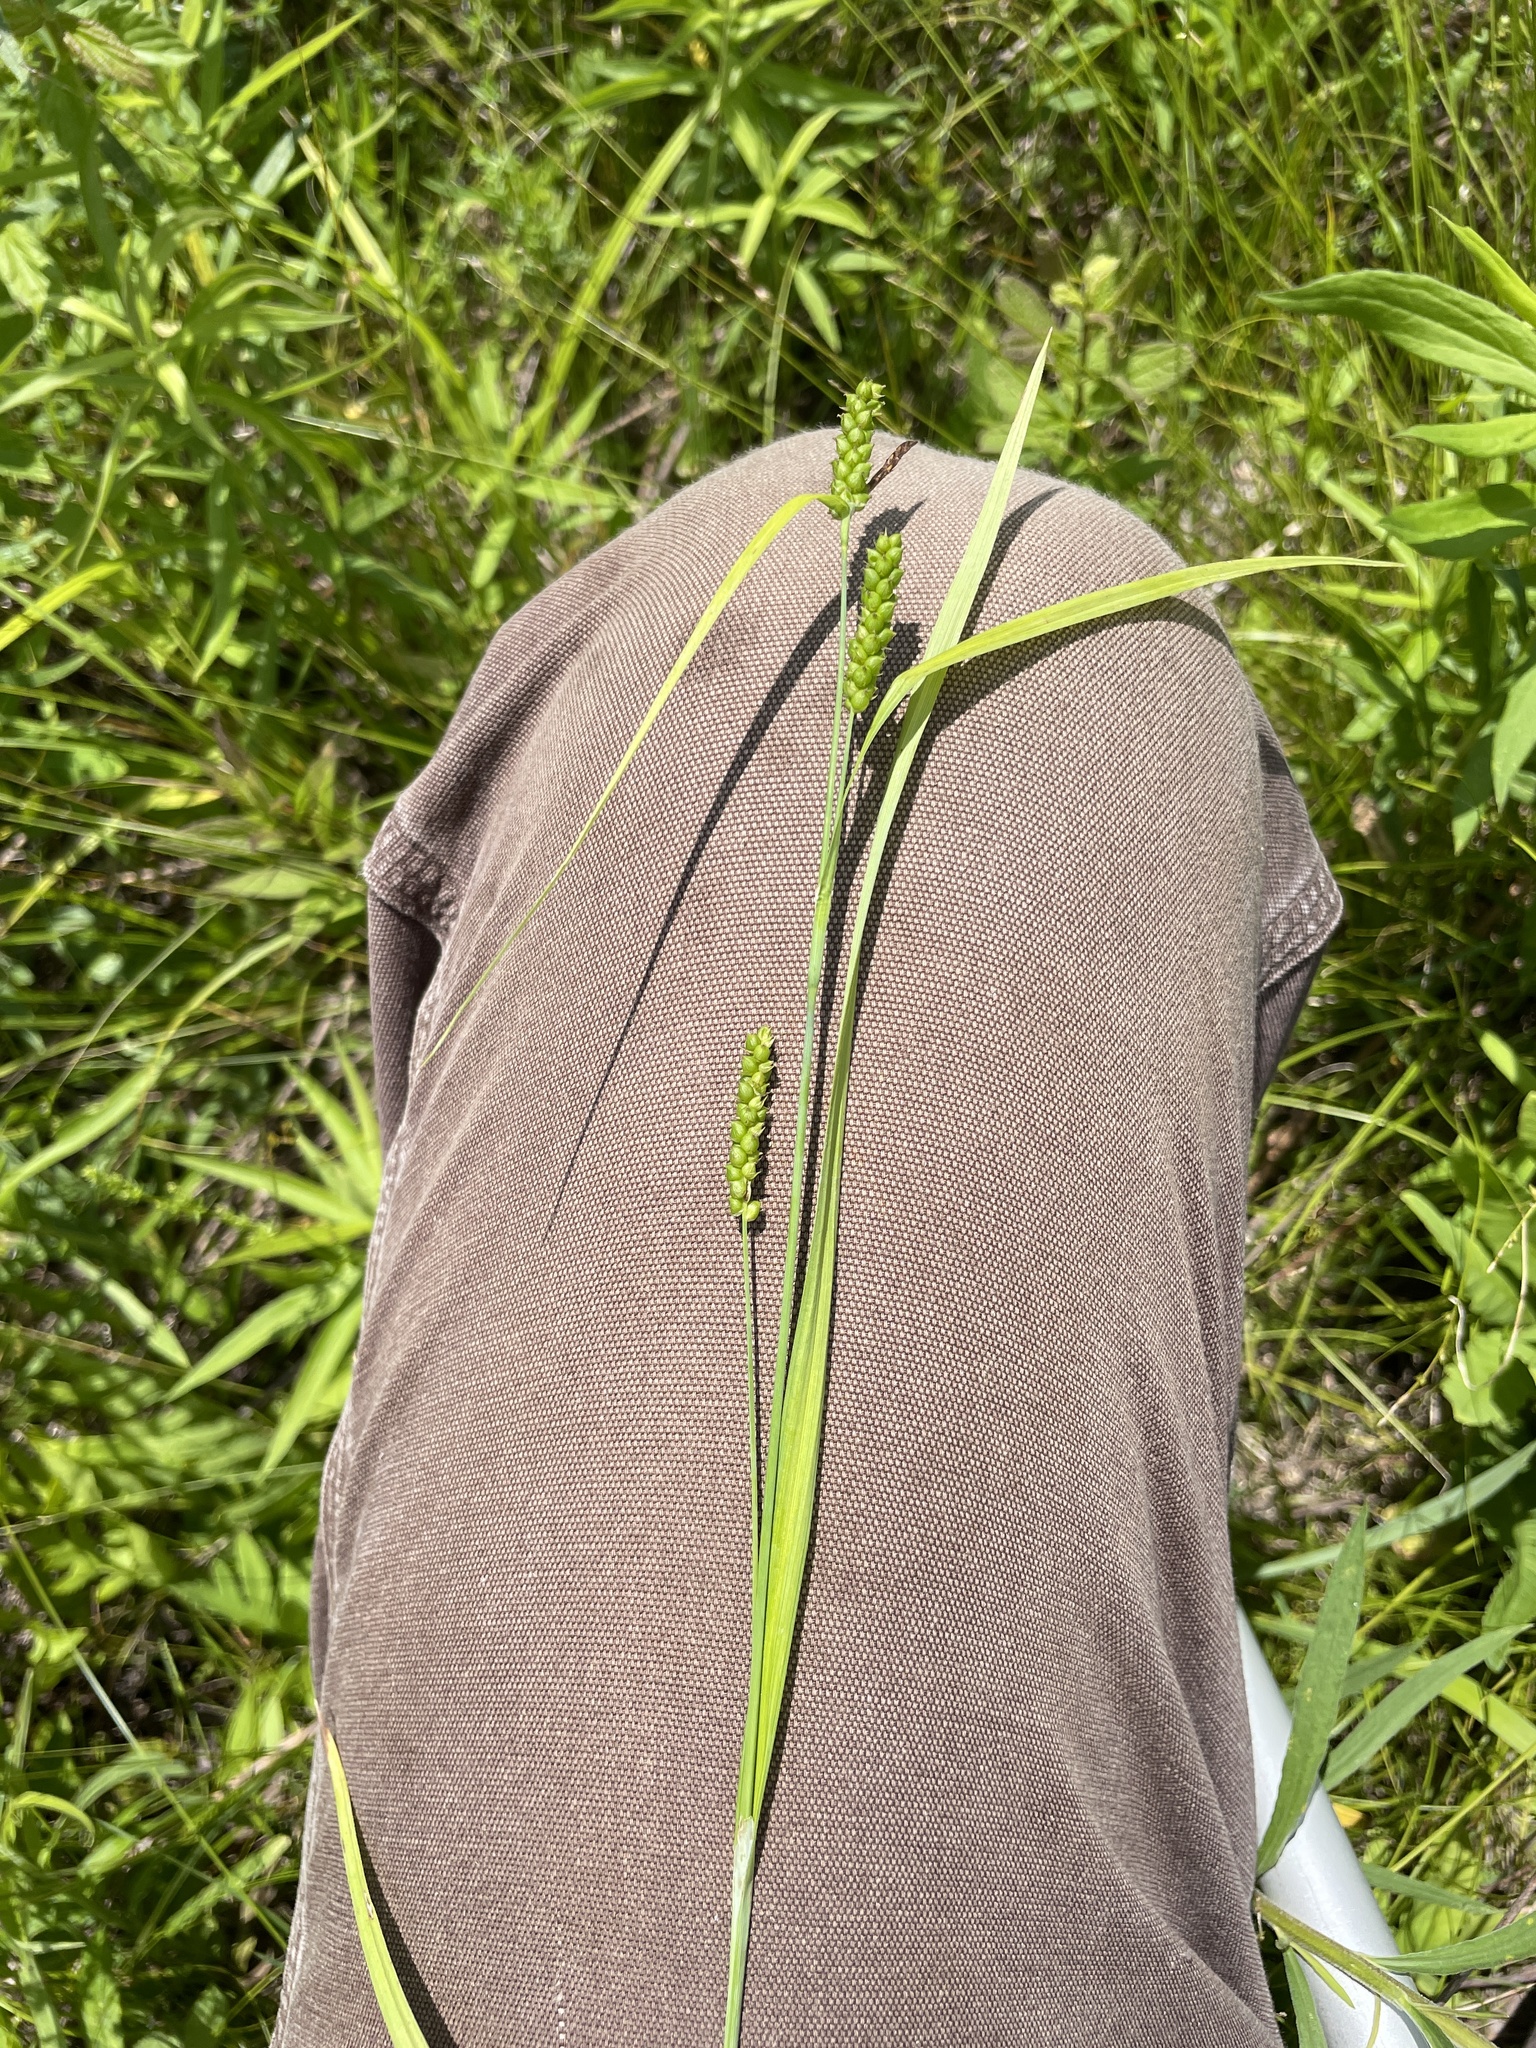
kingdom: Plantae
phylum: Tracheophyta
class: Liliopsida
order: Poales
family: Cyperaceae
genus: Carex
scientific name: Carex granularis
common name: Granular sedge
